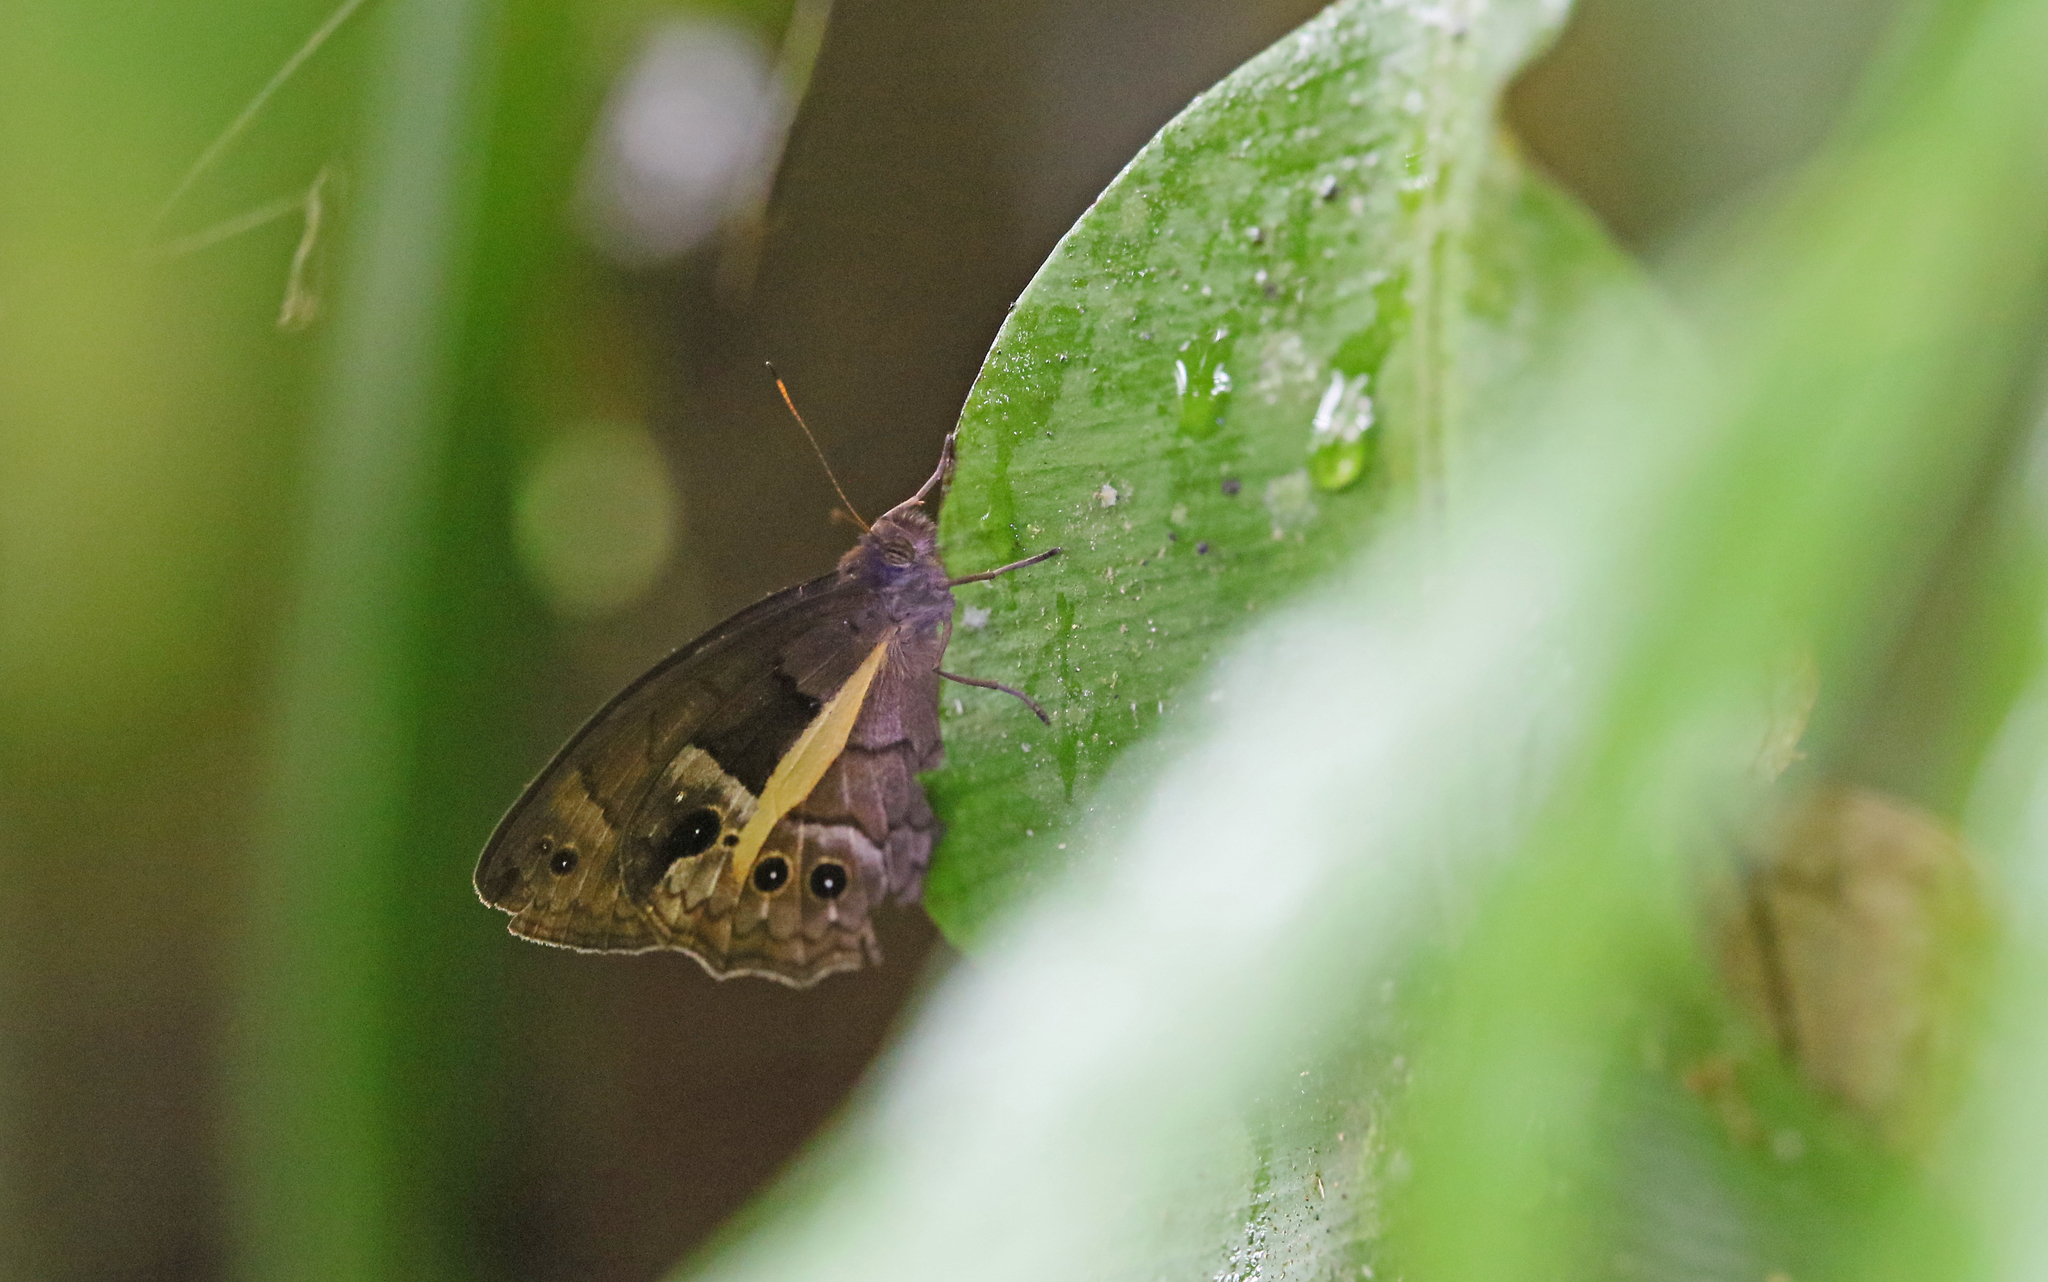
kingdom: Animalia
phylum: Arthropoda
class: Insecta
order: Lepidoptera
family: Nymphalidae
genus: Posttaygetis
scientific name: Posttaygetis penelea
